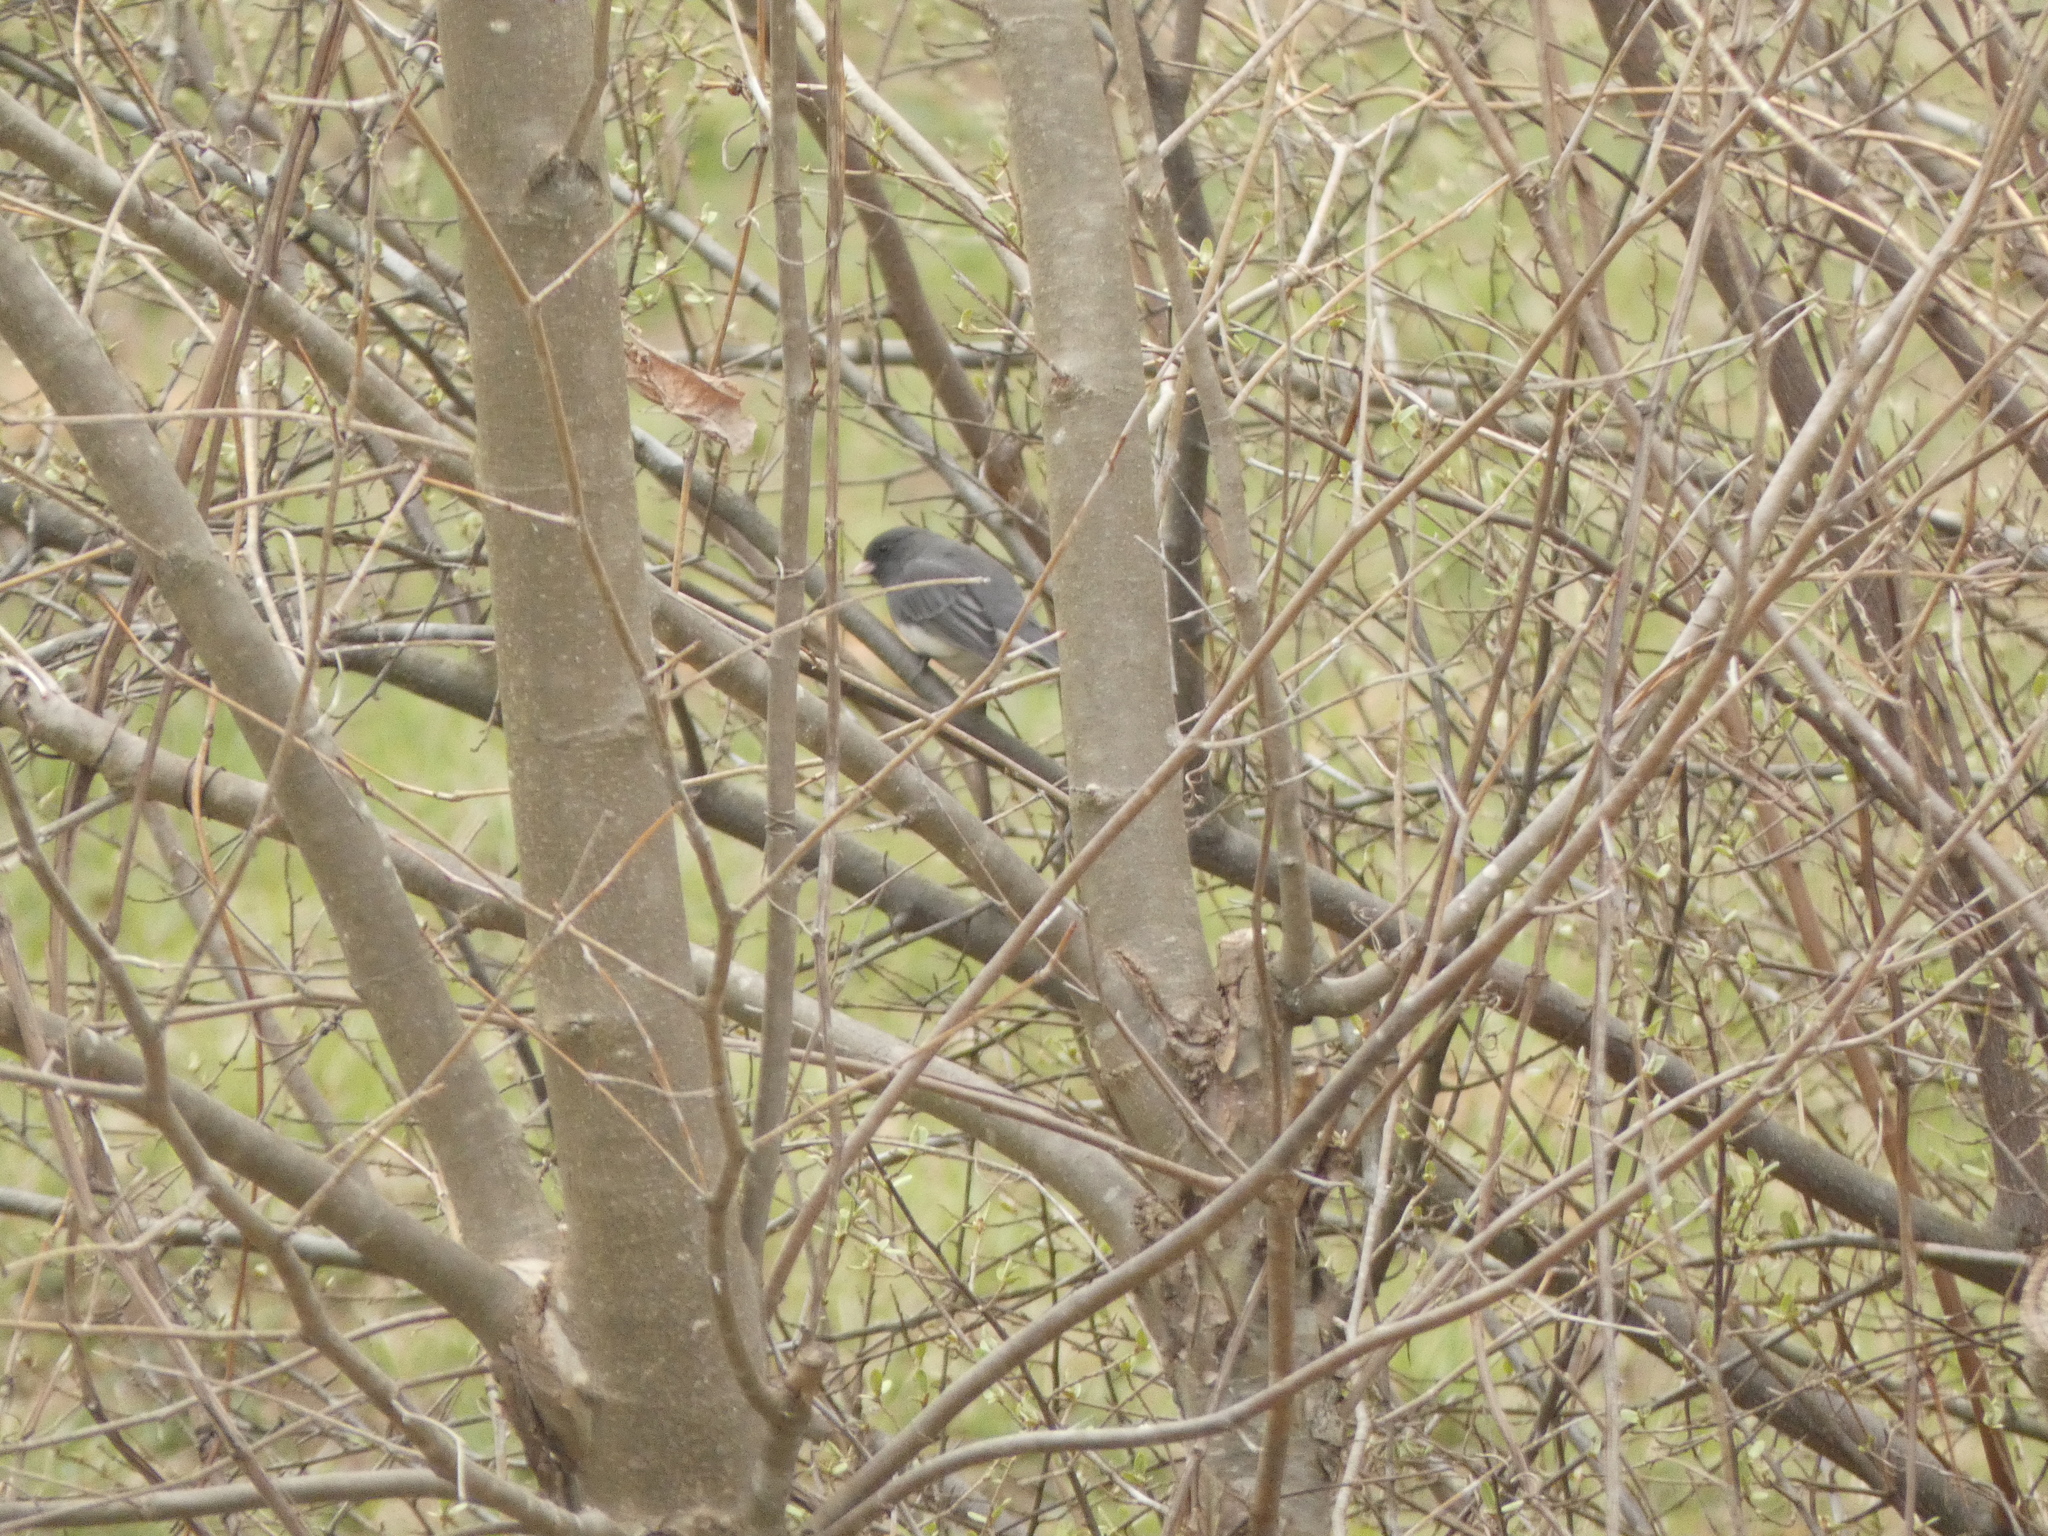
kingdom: Animalia
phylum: Chordata
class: Aves
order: Passeriformes
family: Passerellidae
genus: Junco
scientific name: Junco hyemalis
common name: Dark-eyed junco
